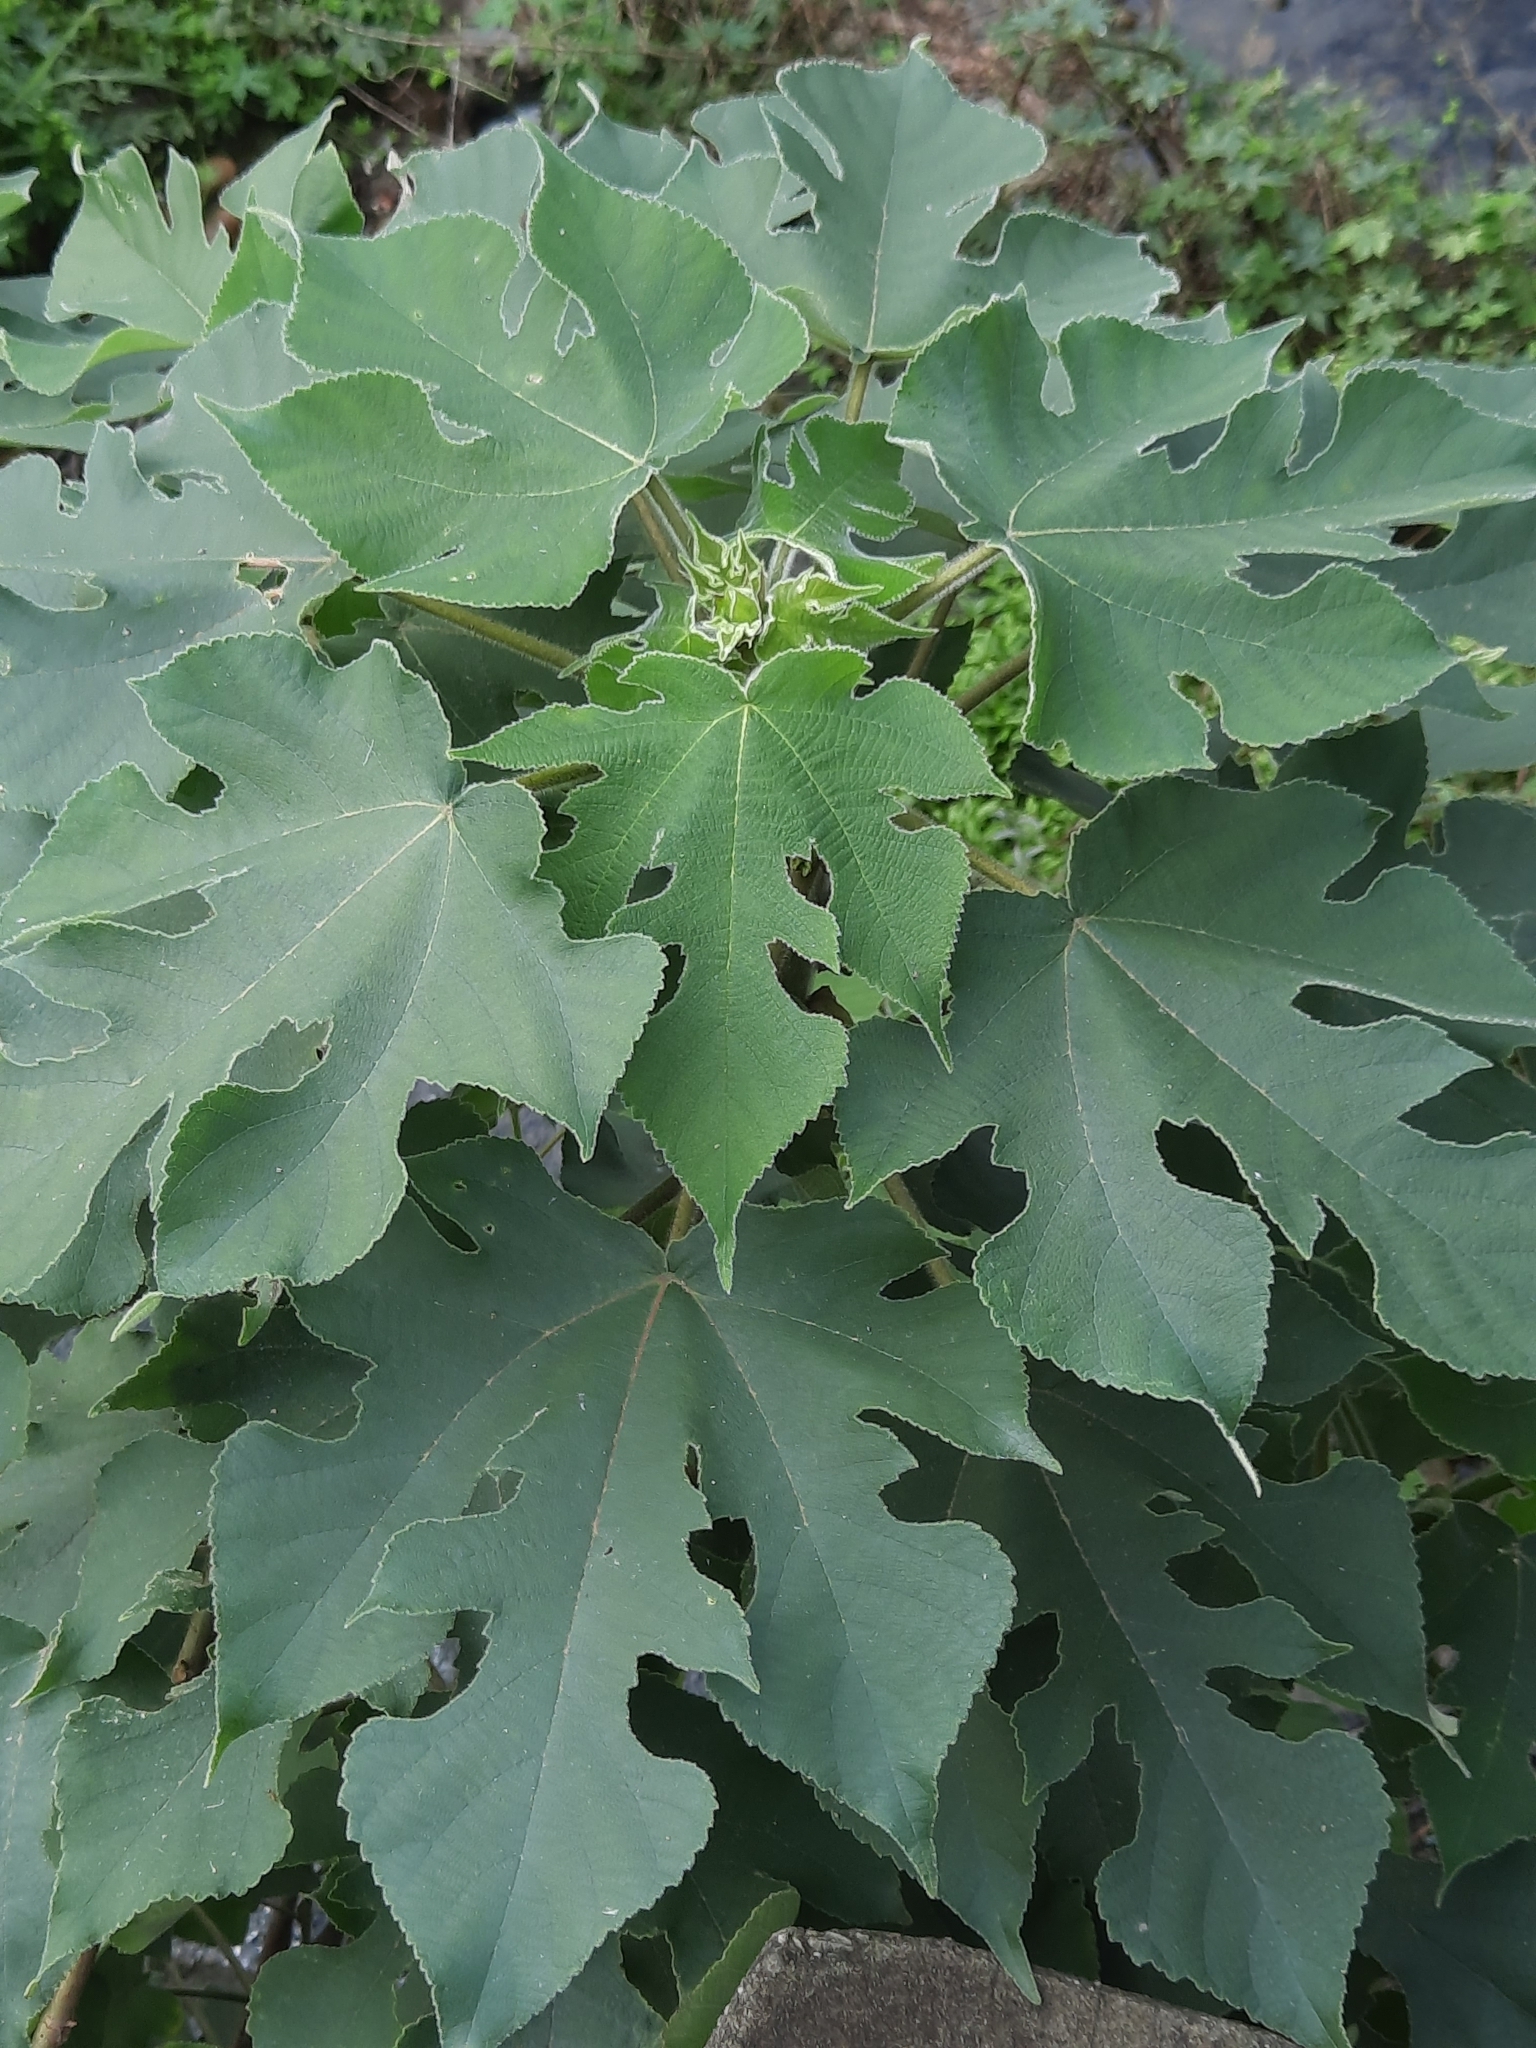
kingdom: Plantae
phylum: Tracheophyta
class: Magnoliopsida
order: Rosales
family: Moraceae
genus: Broussonetia
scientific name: Broussonetia papyrifera
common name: Paper mulberry
